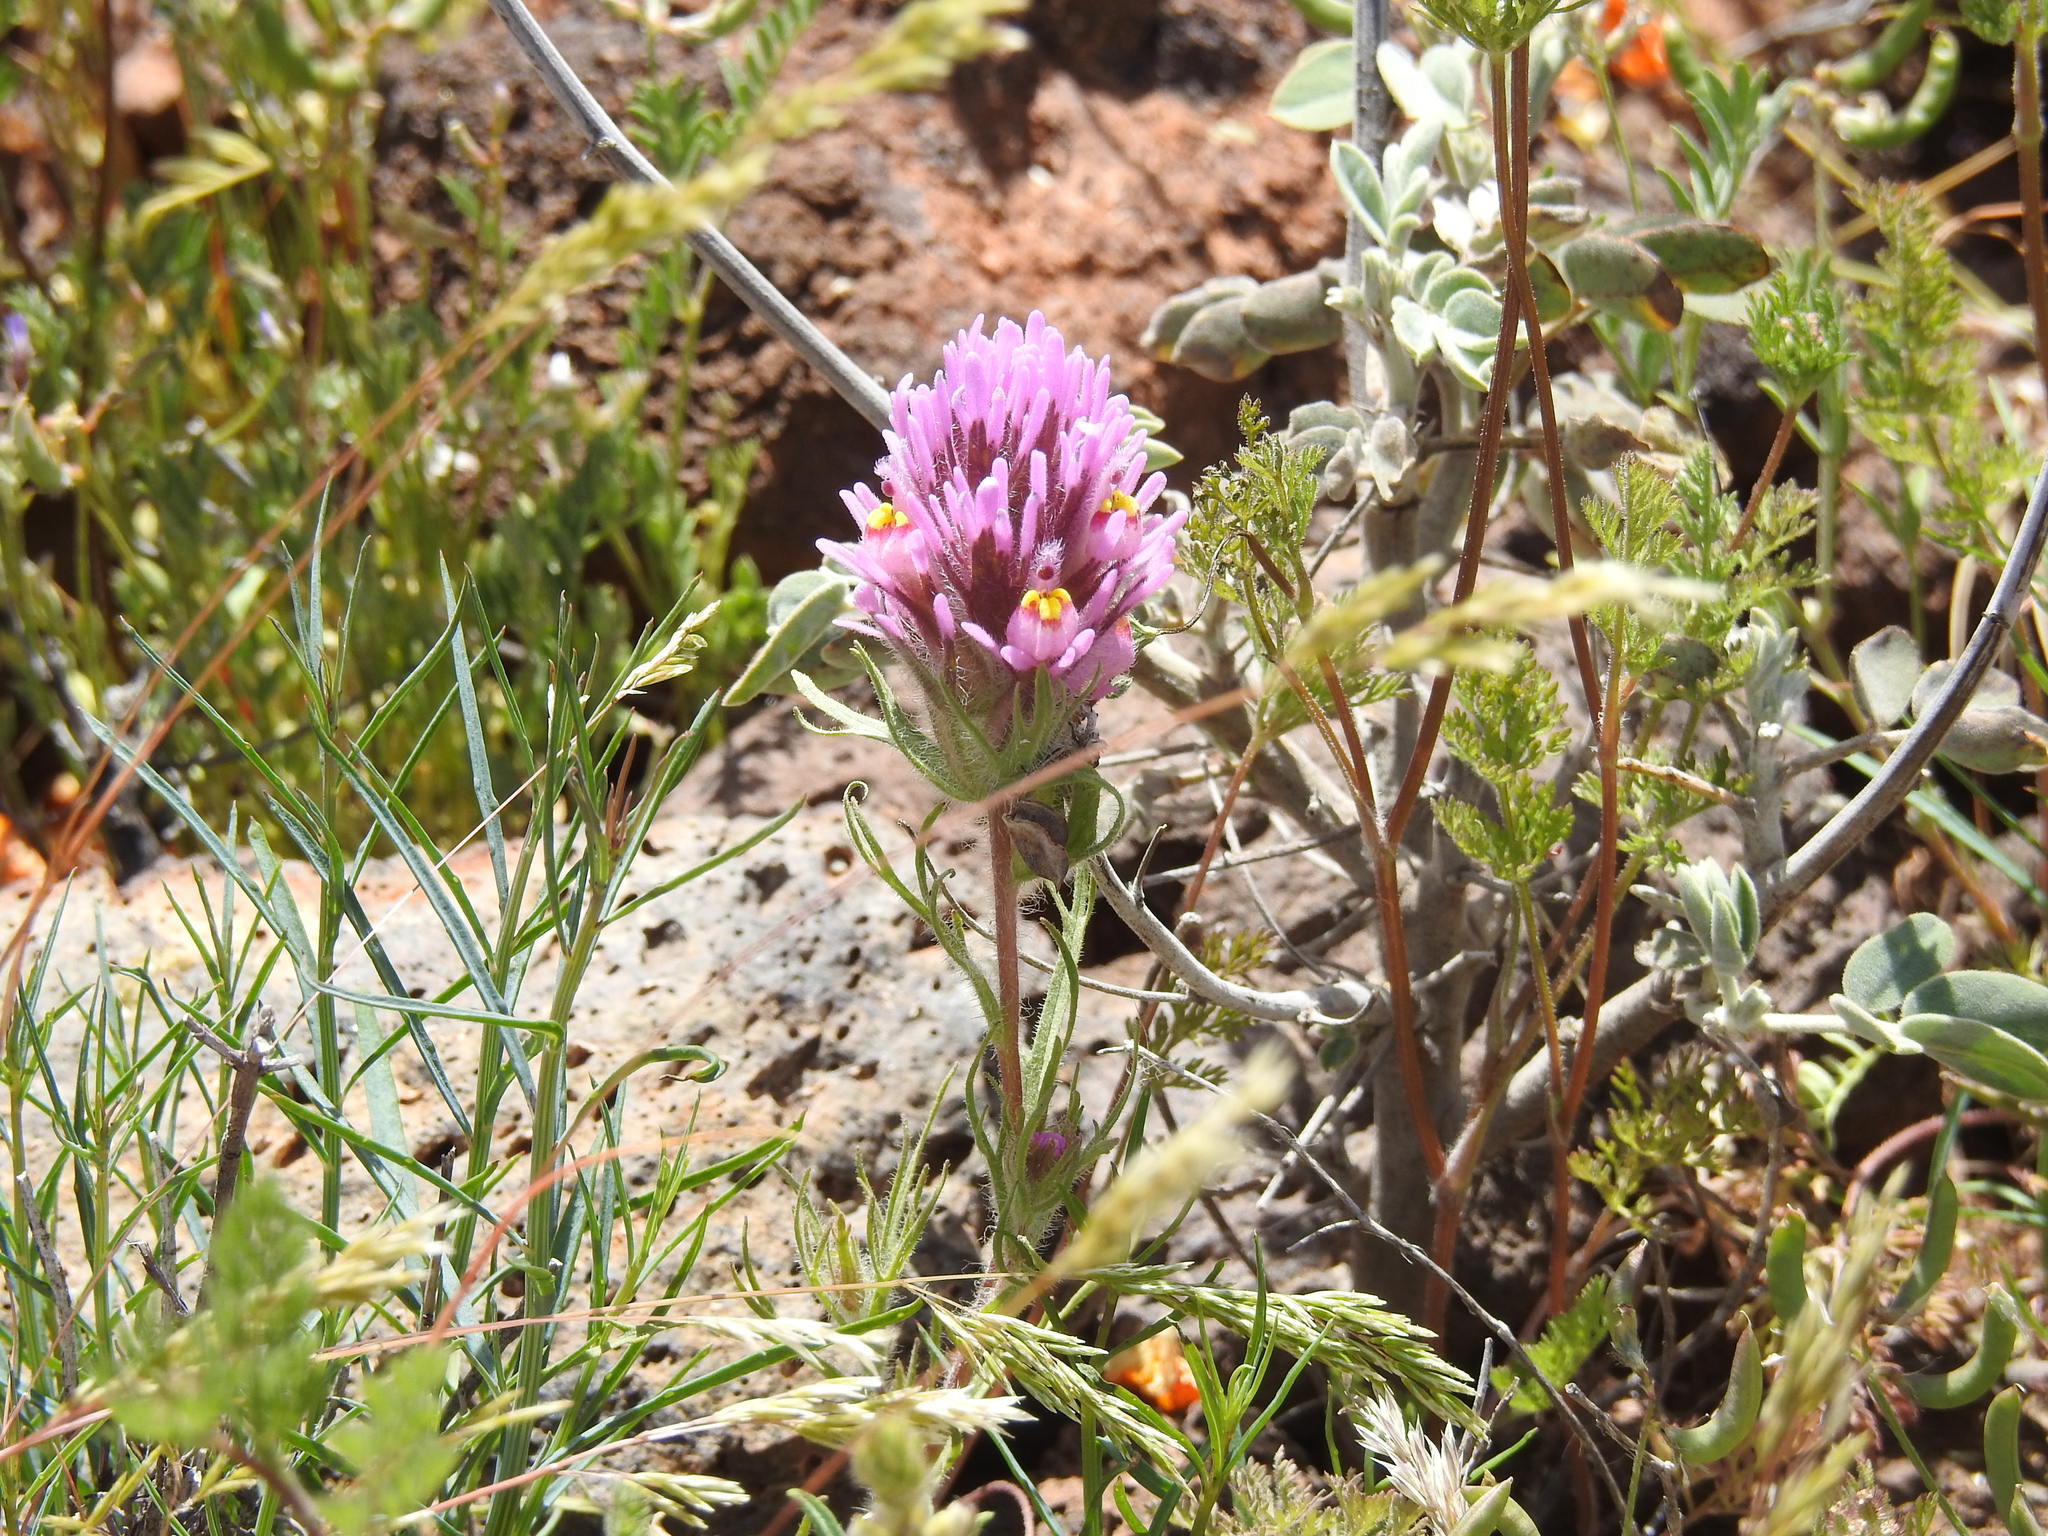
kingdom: Plantae
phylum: Tracheophyta
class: Magnoliopsida
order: Lamiales
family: Orobanchaceae
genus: Castilleja
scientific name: Castilleja exserta
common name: Purple owl-clover
